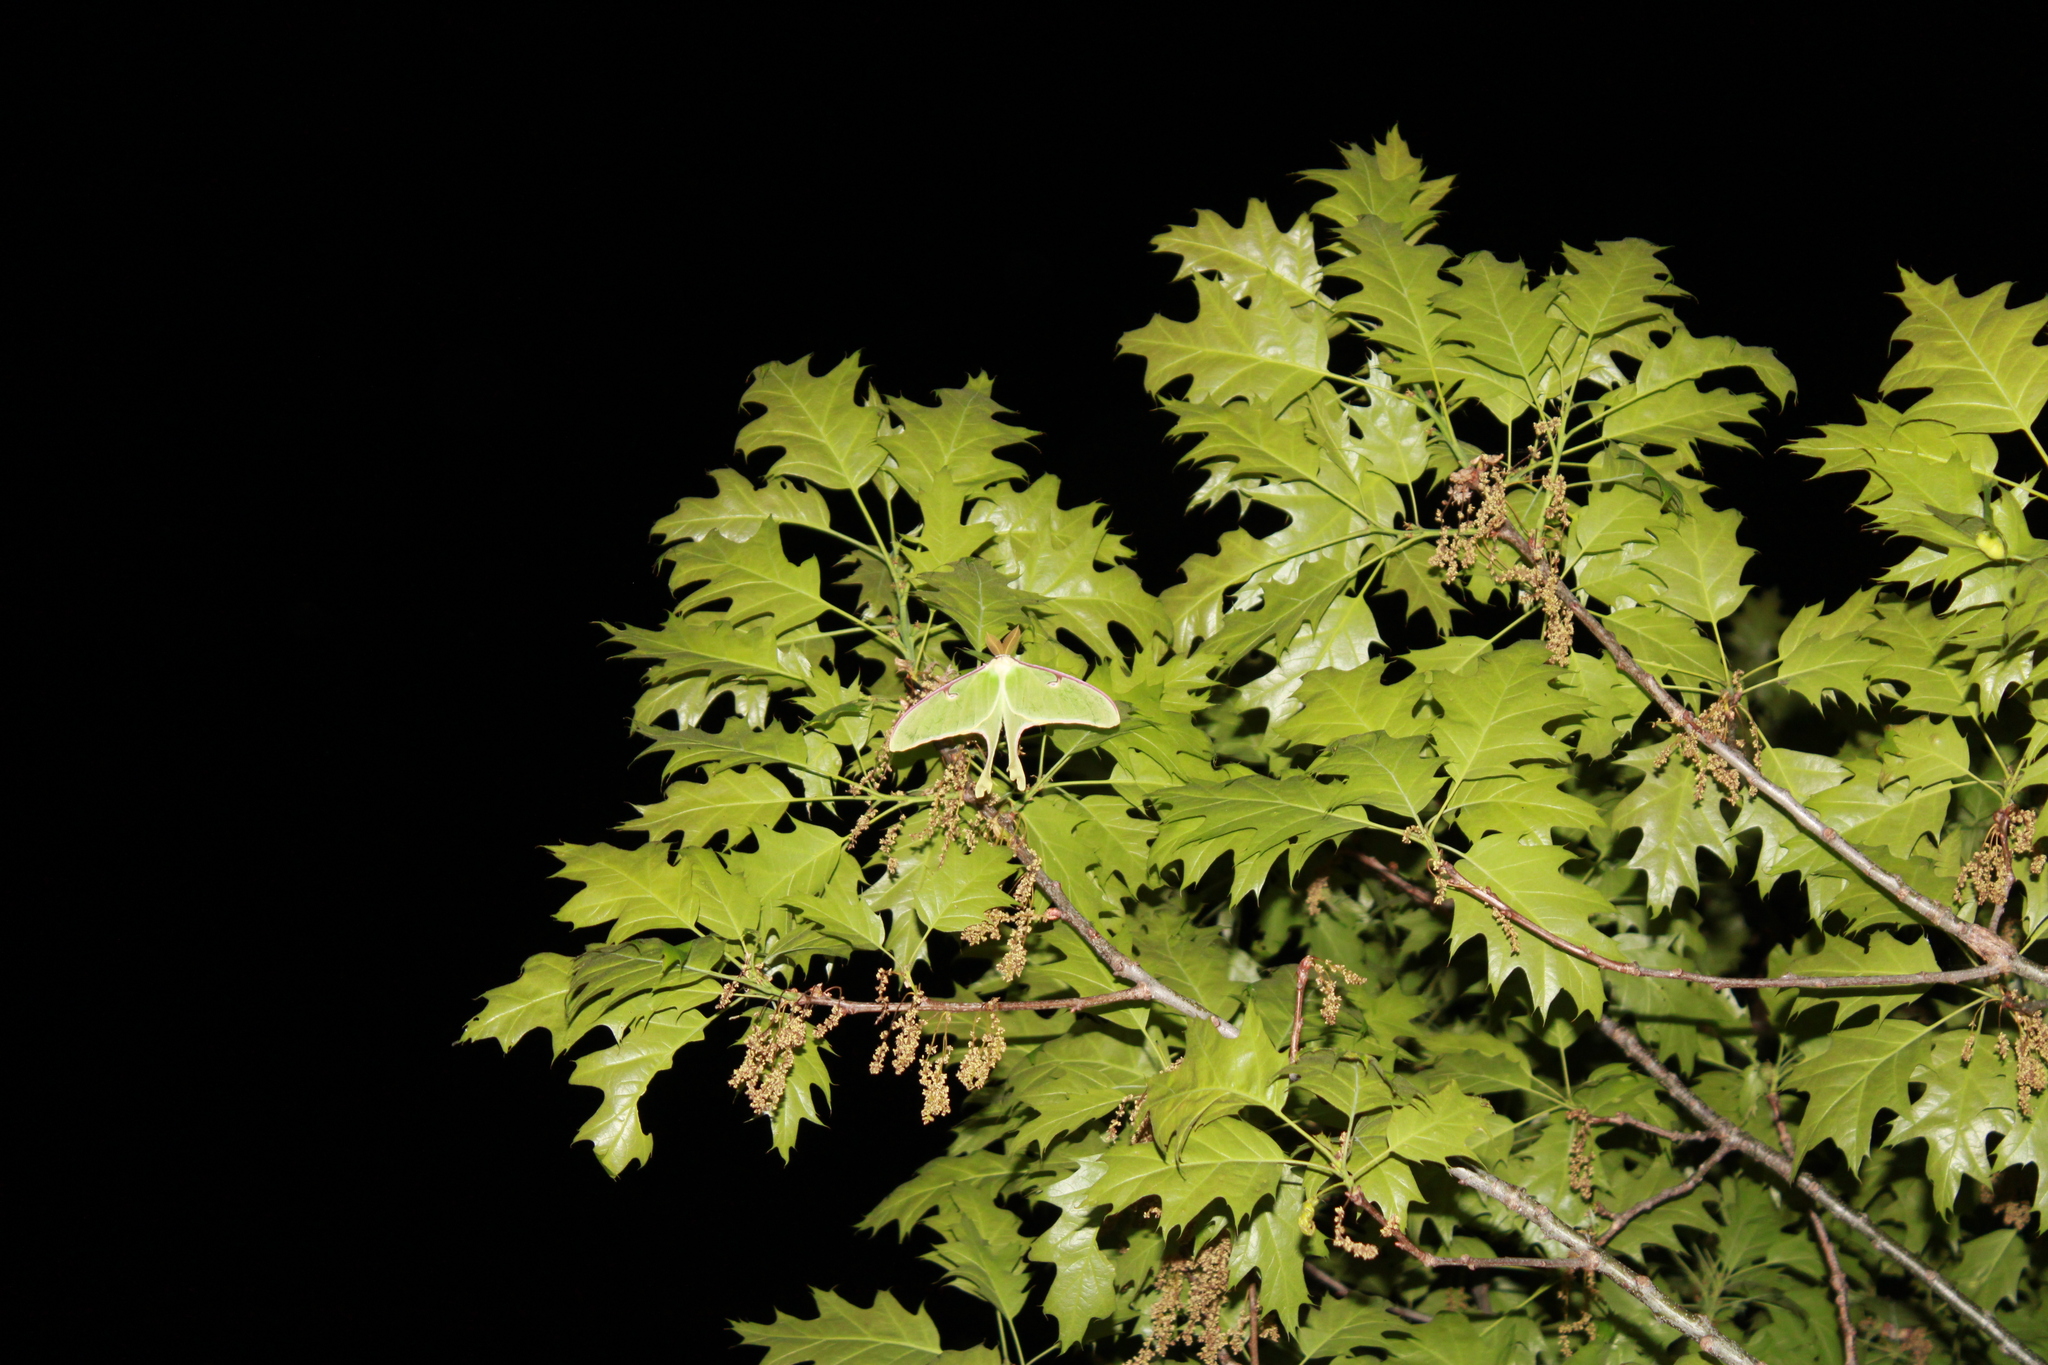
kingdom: Animalia
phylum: Arthropoda
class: Insecta
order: Lepidoptera
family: Saturniidae
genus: Actias
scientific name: Actias luna
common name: Luna moth
